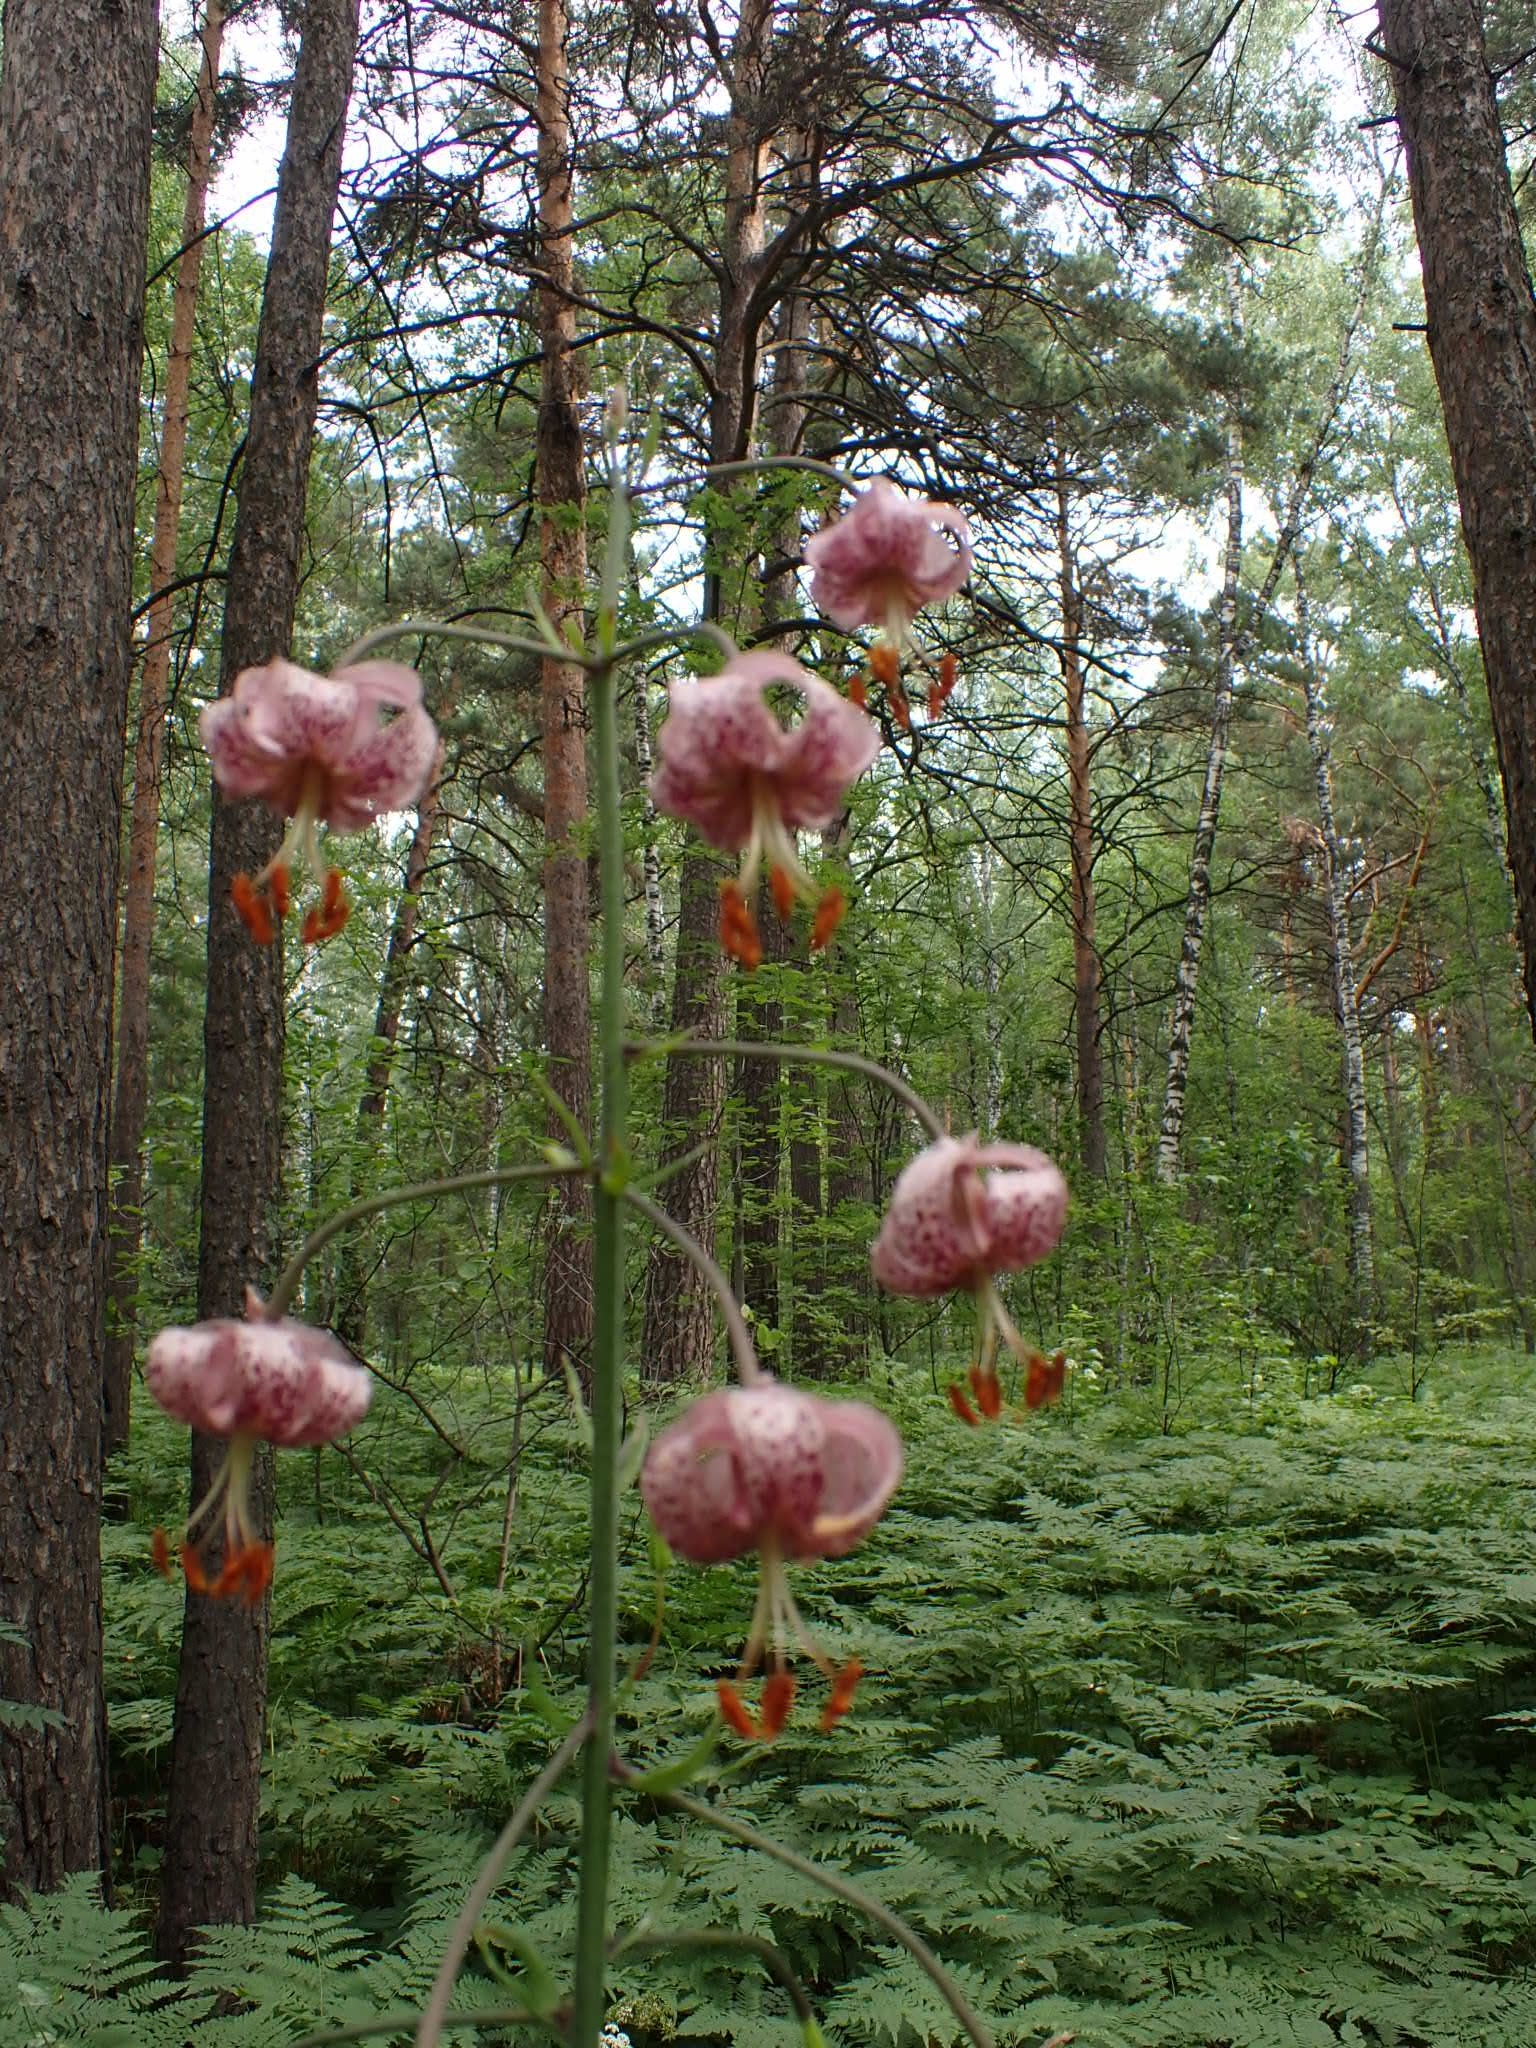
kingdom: Plantae
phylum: Tracheophyta
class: Liliopsida
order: Liliales
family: Liliaceae
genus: Lilium
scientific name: Lilium martagon
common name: Martagon lily
